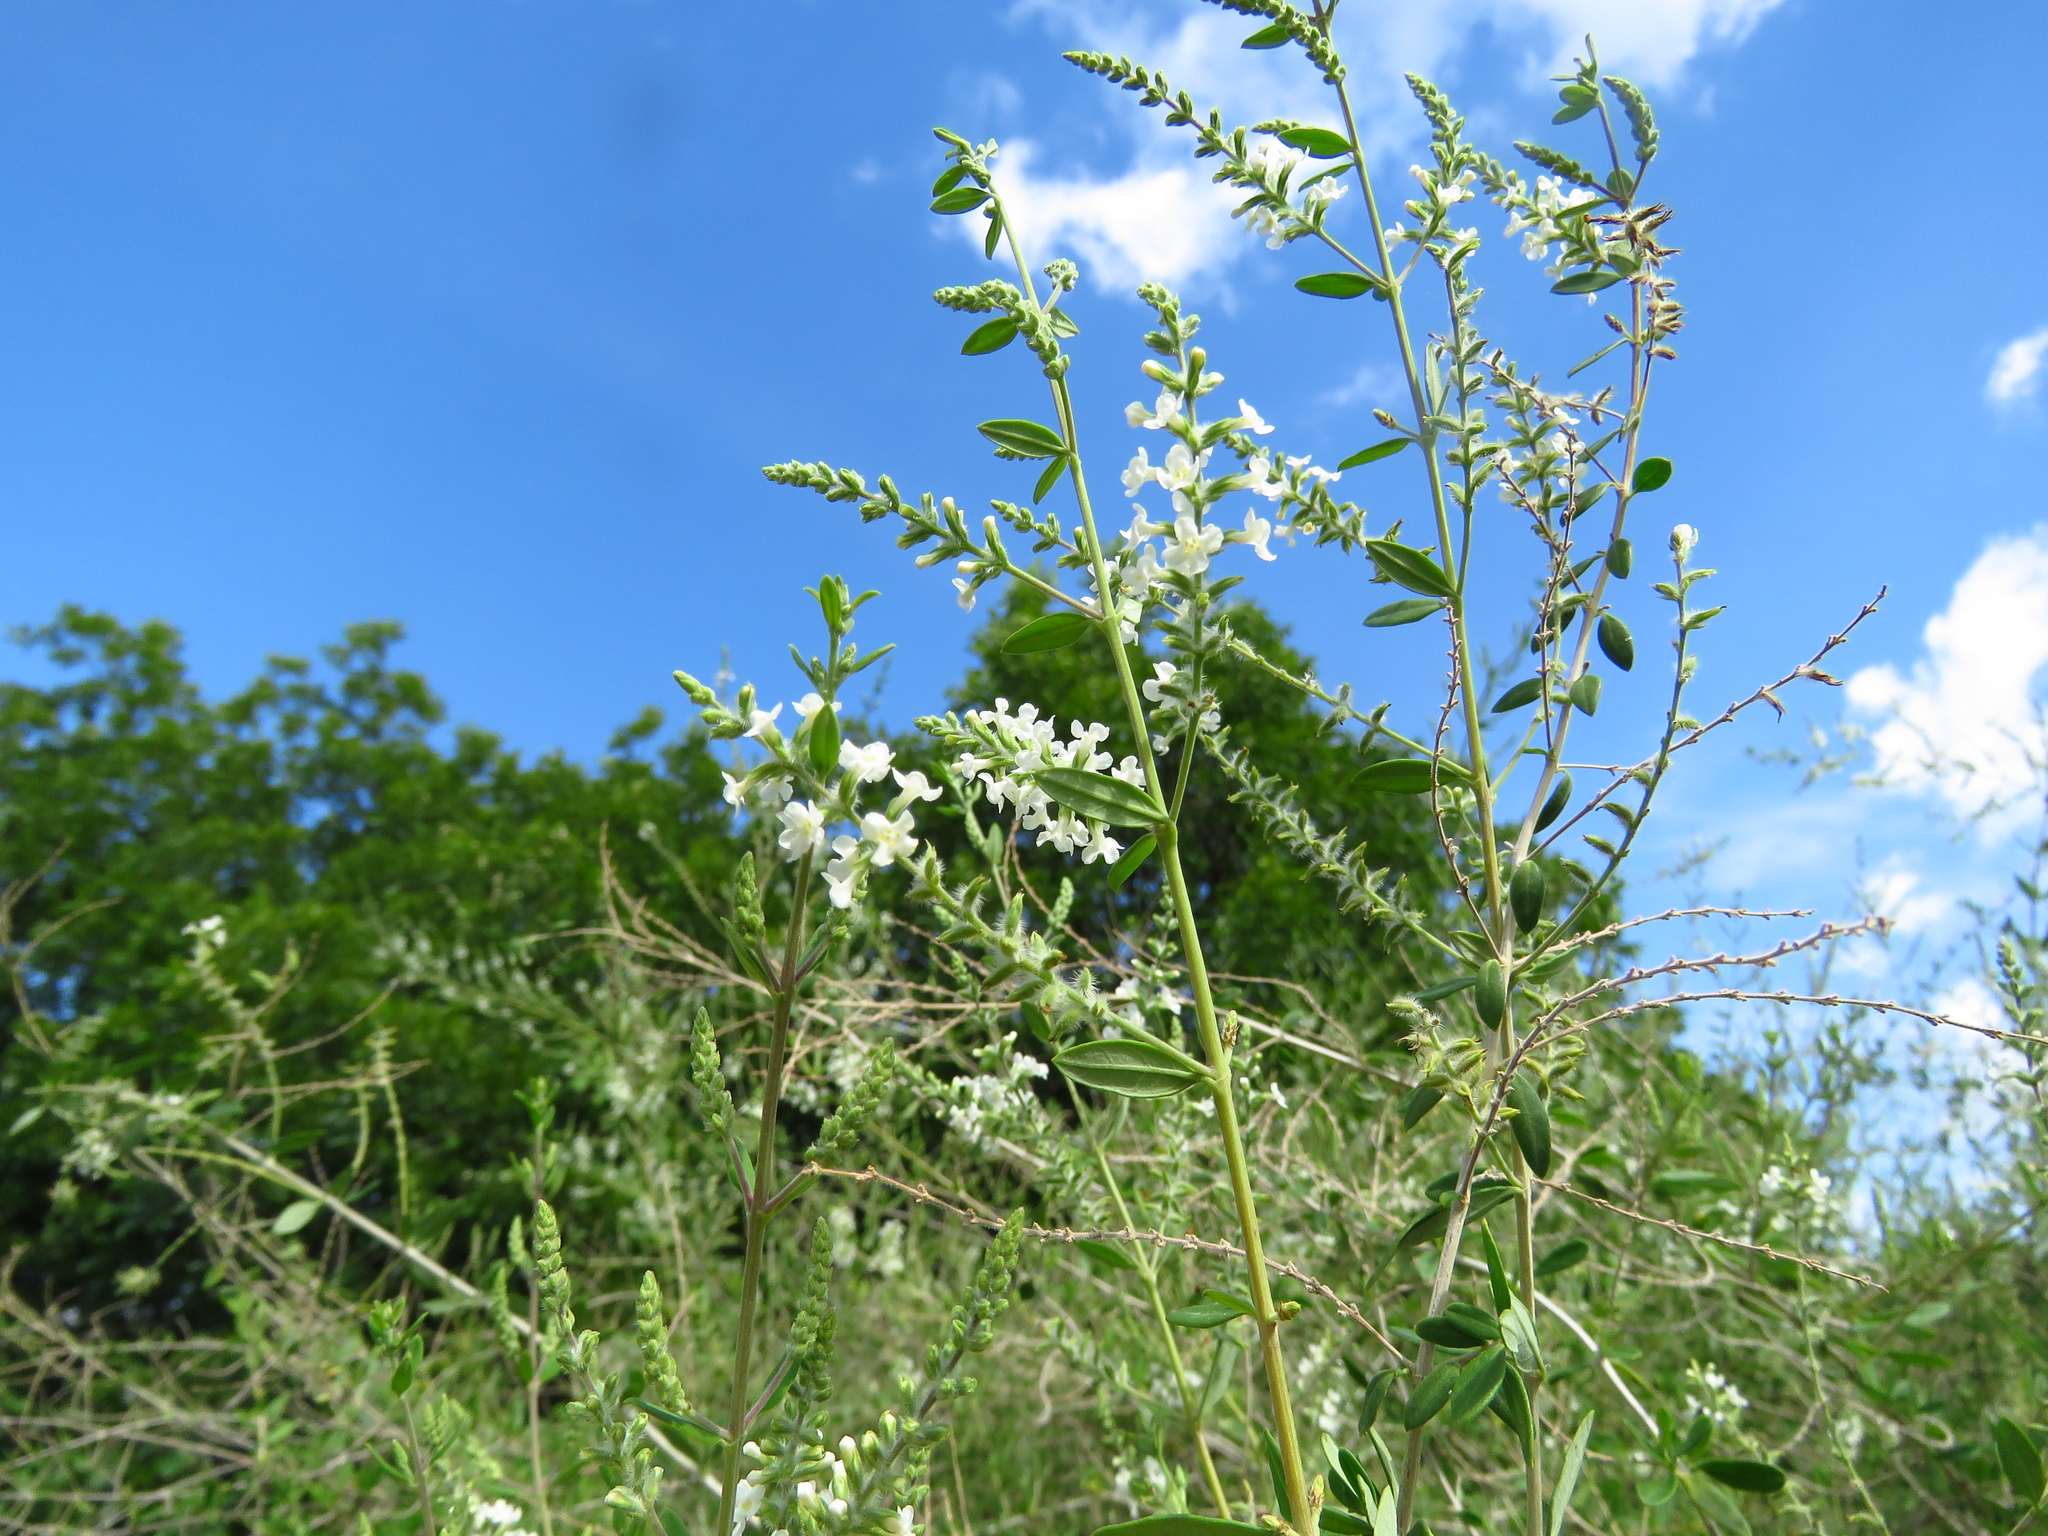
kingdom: Plantae
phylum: Tracheophyta
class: Magnoliopsida
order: Lamiales
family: Verbenaceae
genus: Aloysia
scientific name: Aloysia gratissima
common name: Common bee-brush
